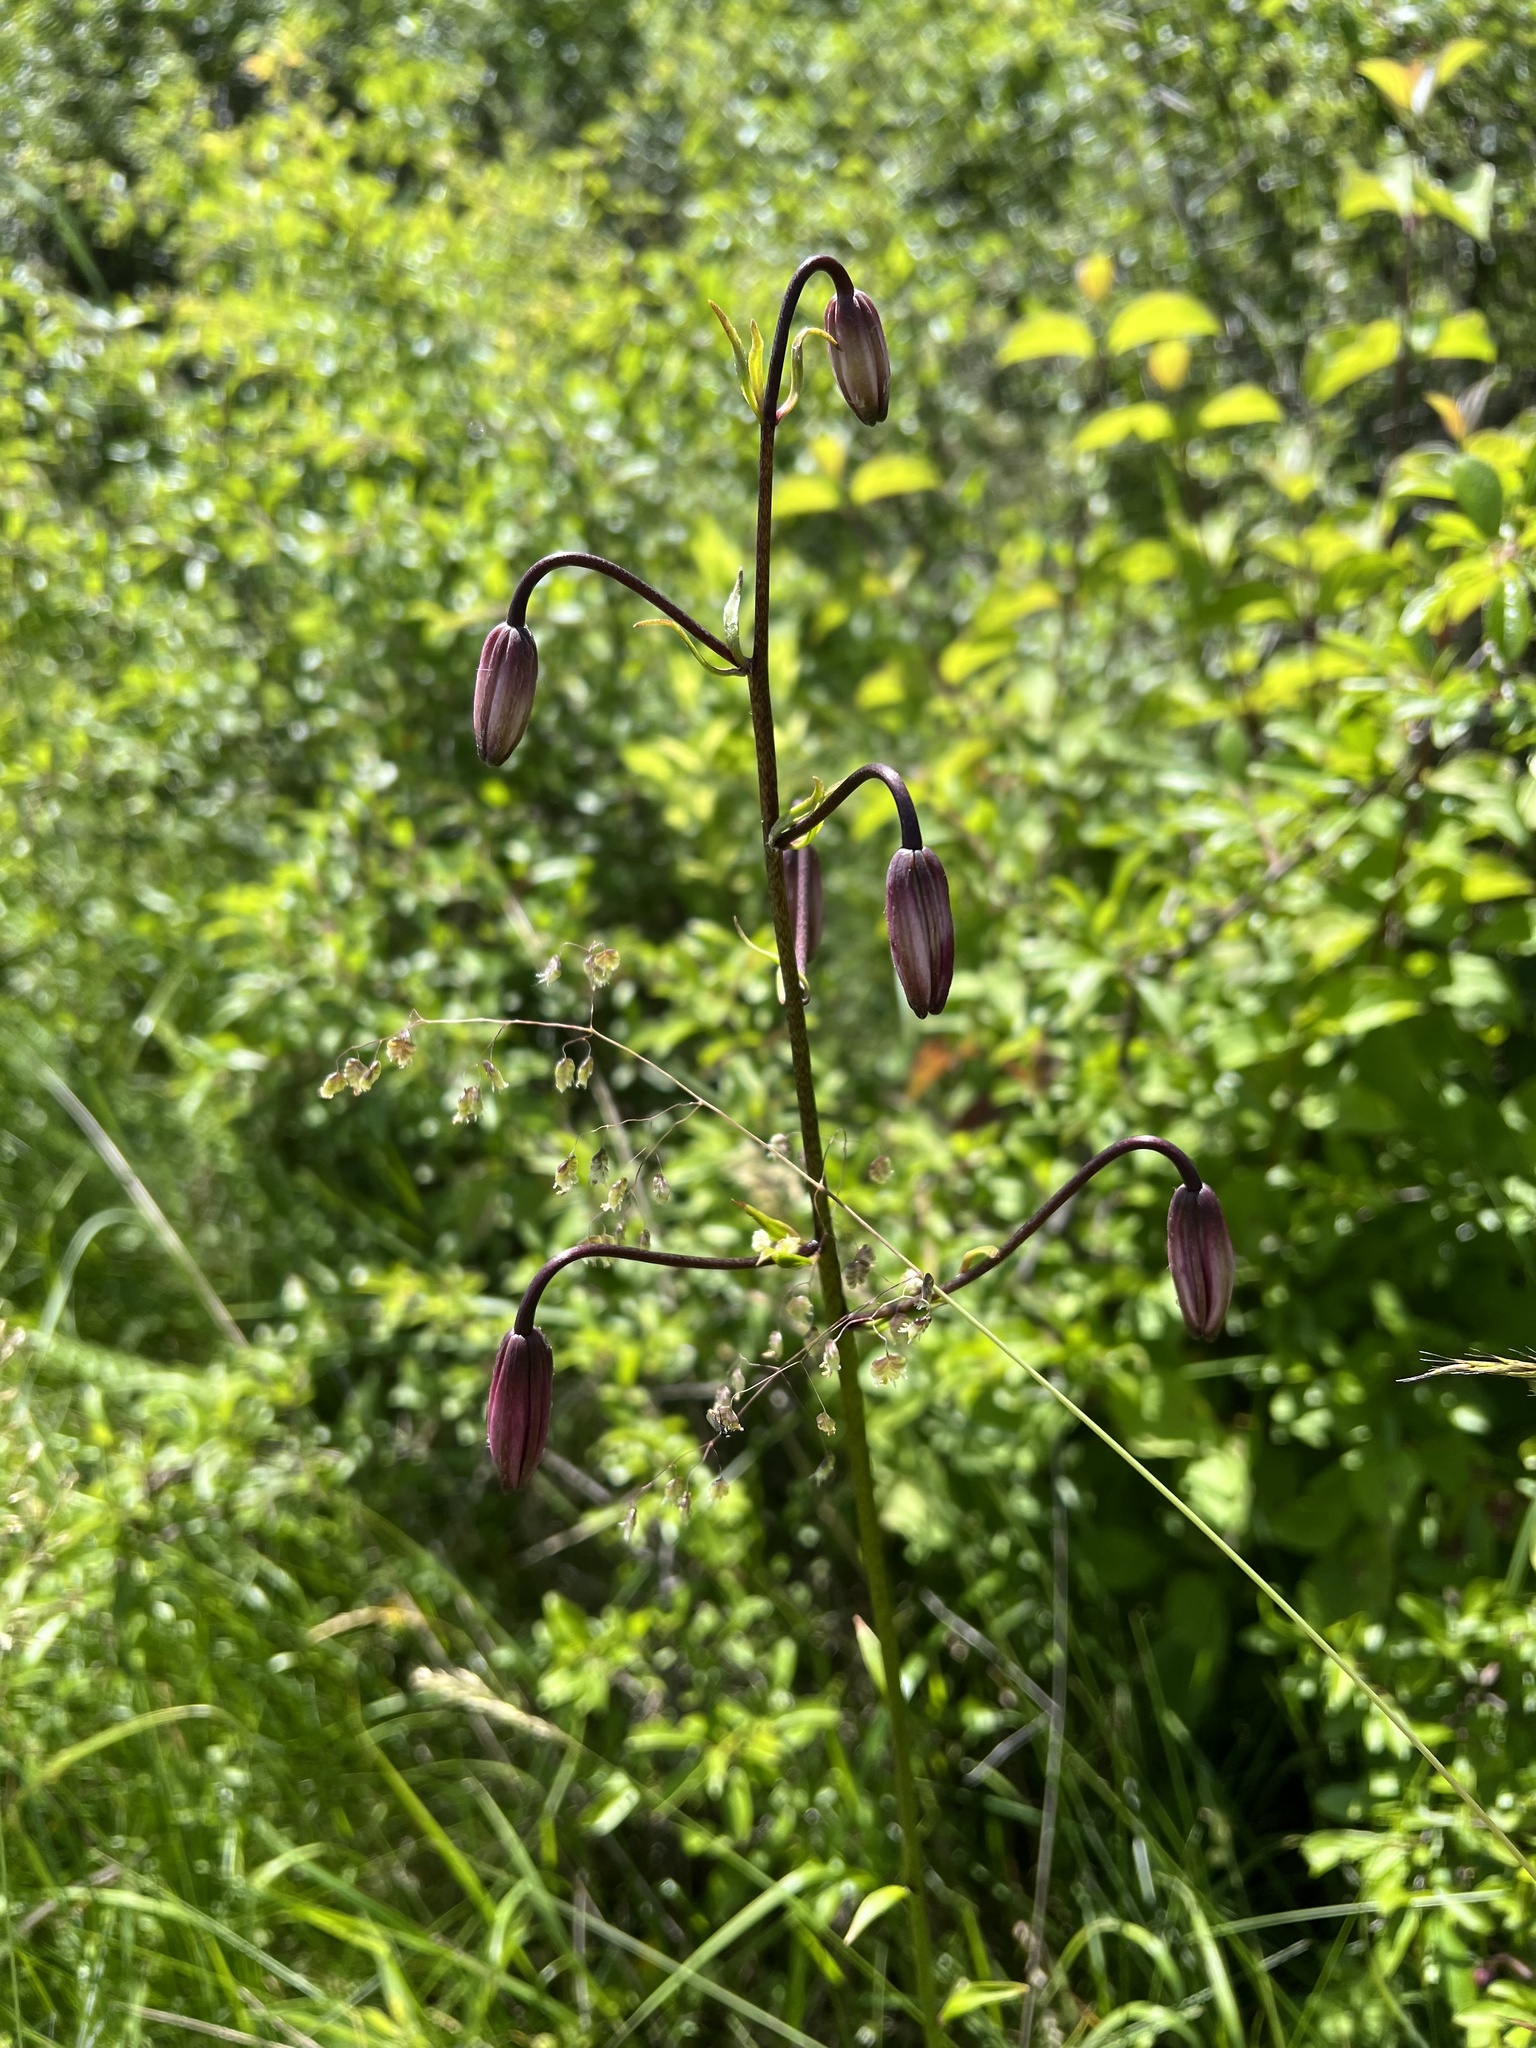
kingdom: Plantae
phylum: Tracheophyta
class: Liliopsida
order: Liliales
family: Liliaceae
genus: Lilium
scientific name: Lilium martagon
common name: Martagon lily
